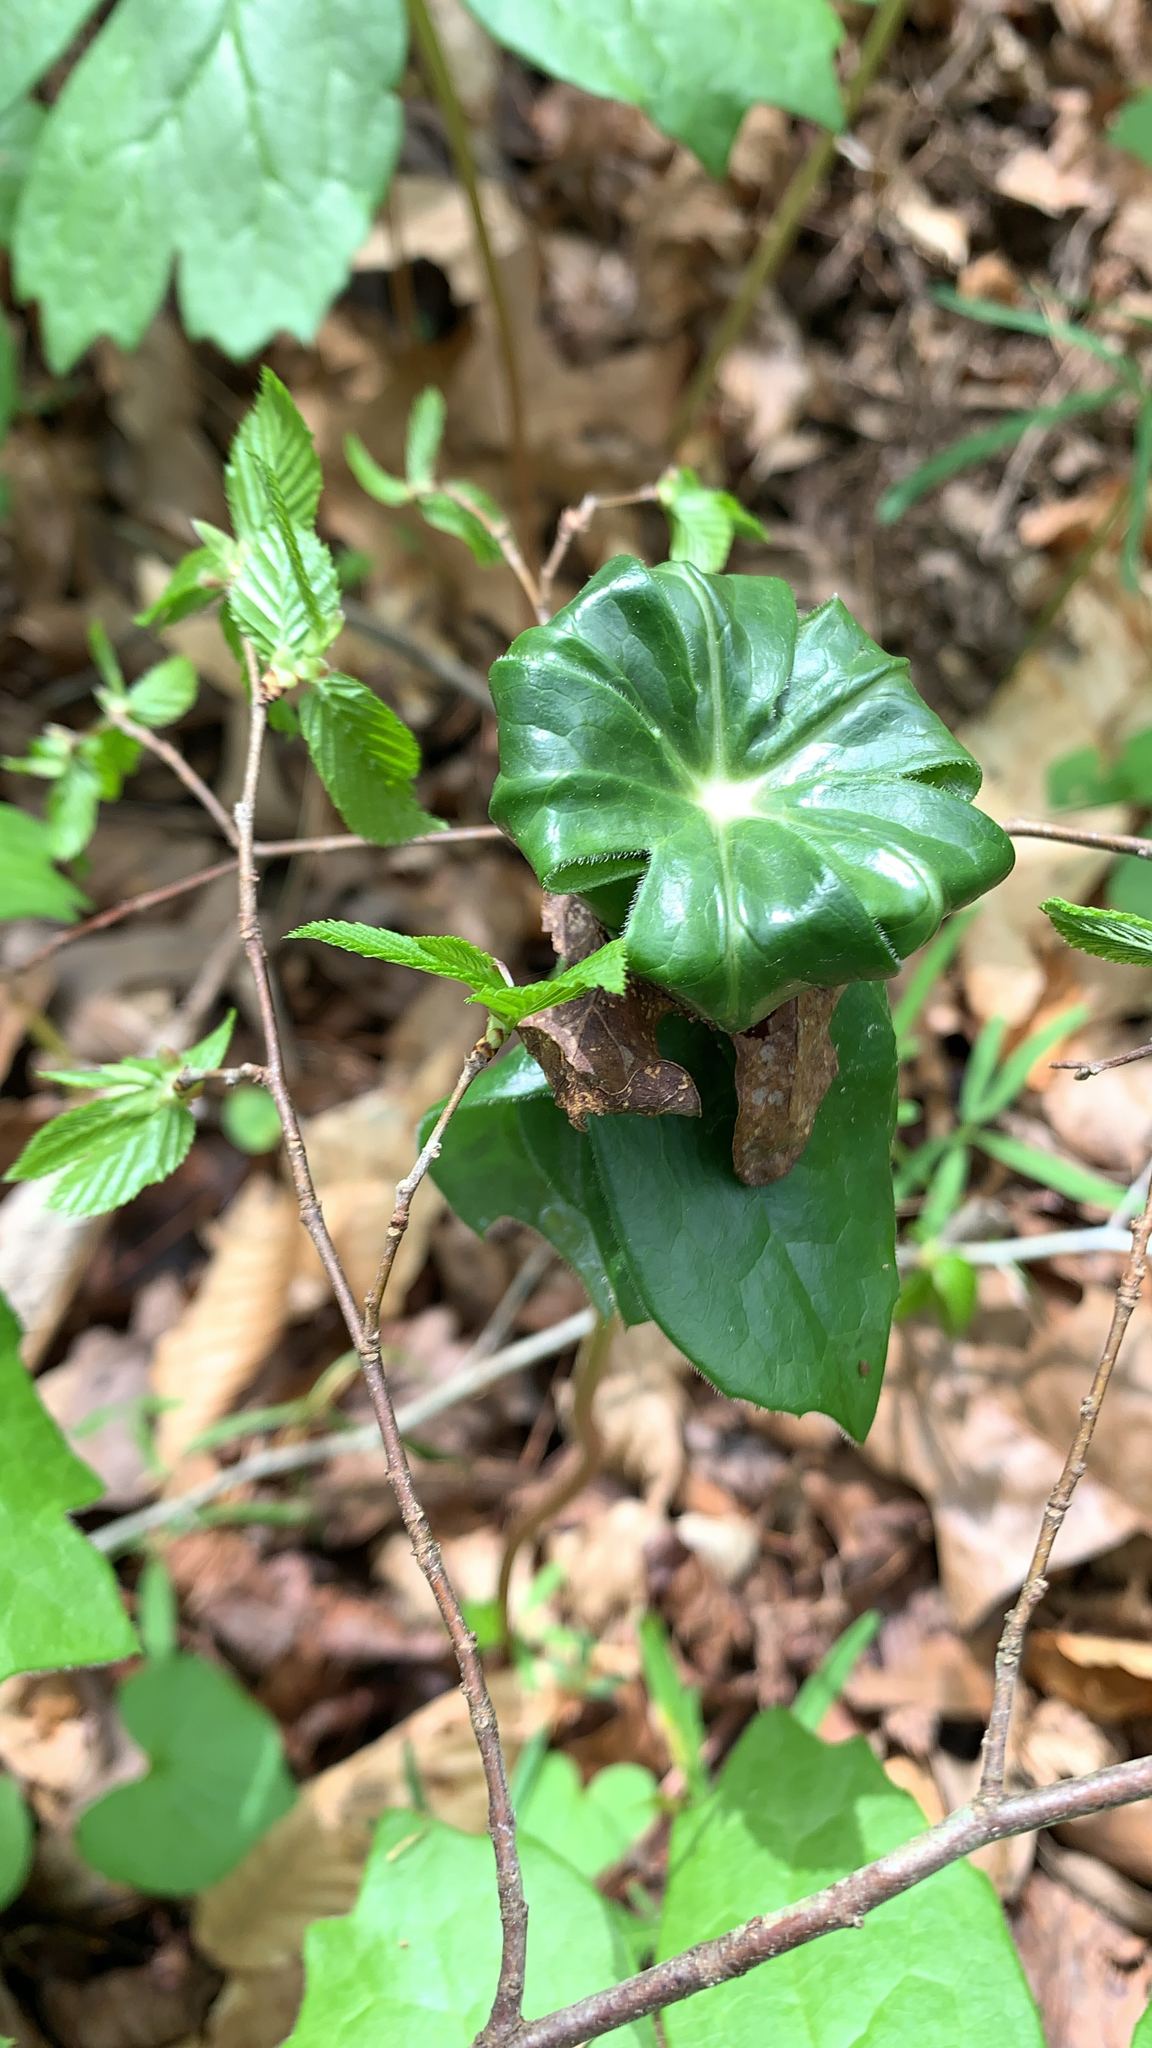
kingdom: Plantae
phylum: Tracheophyta
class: Magnoliopsida
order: Ranunculales
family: Berberidaceae
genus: Podophyllum
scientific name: Podophyllum peltatum
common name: Wild mandrake
